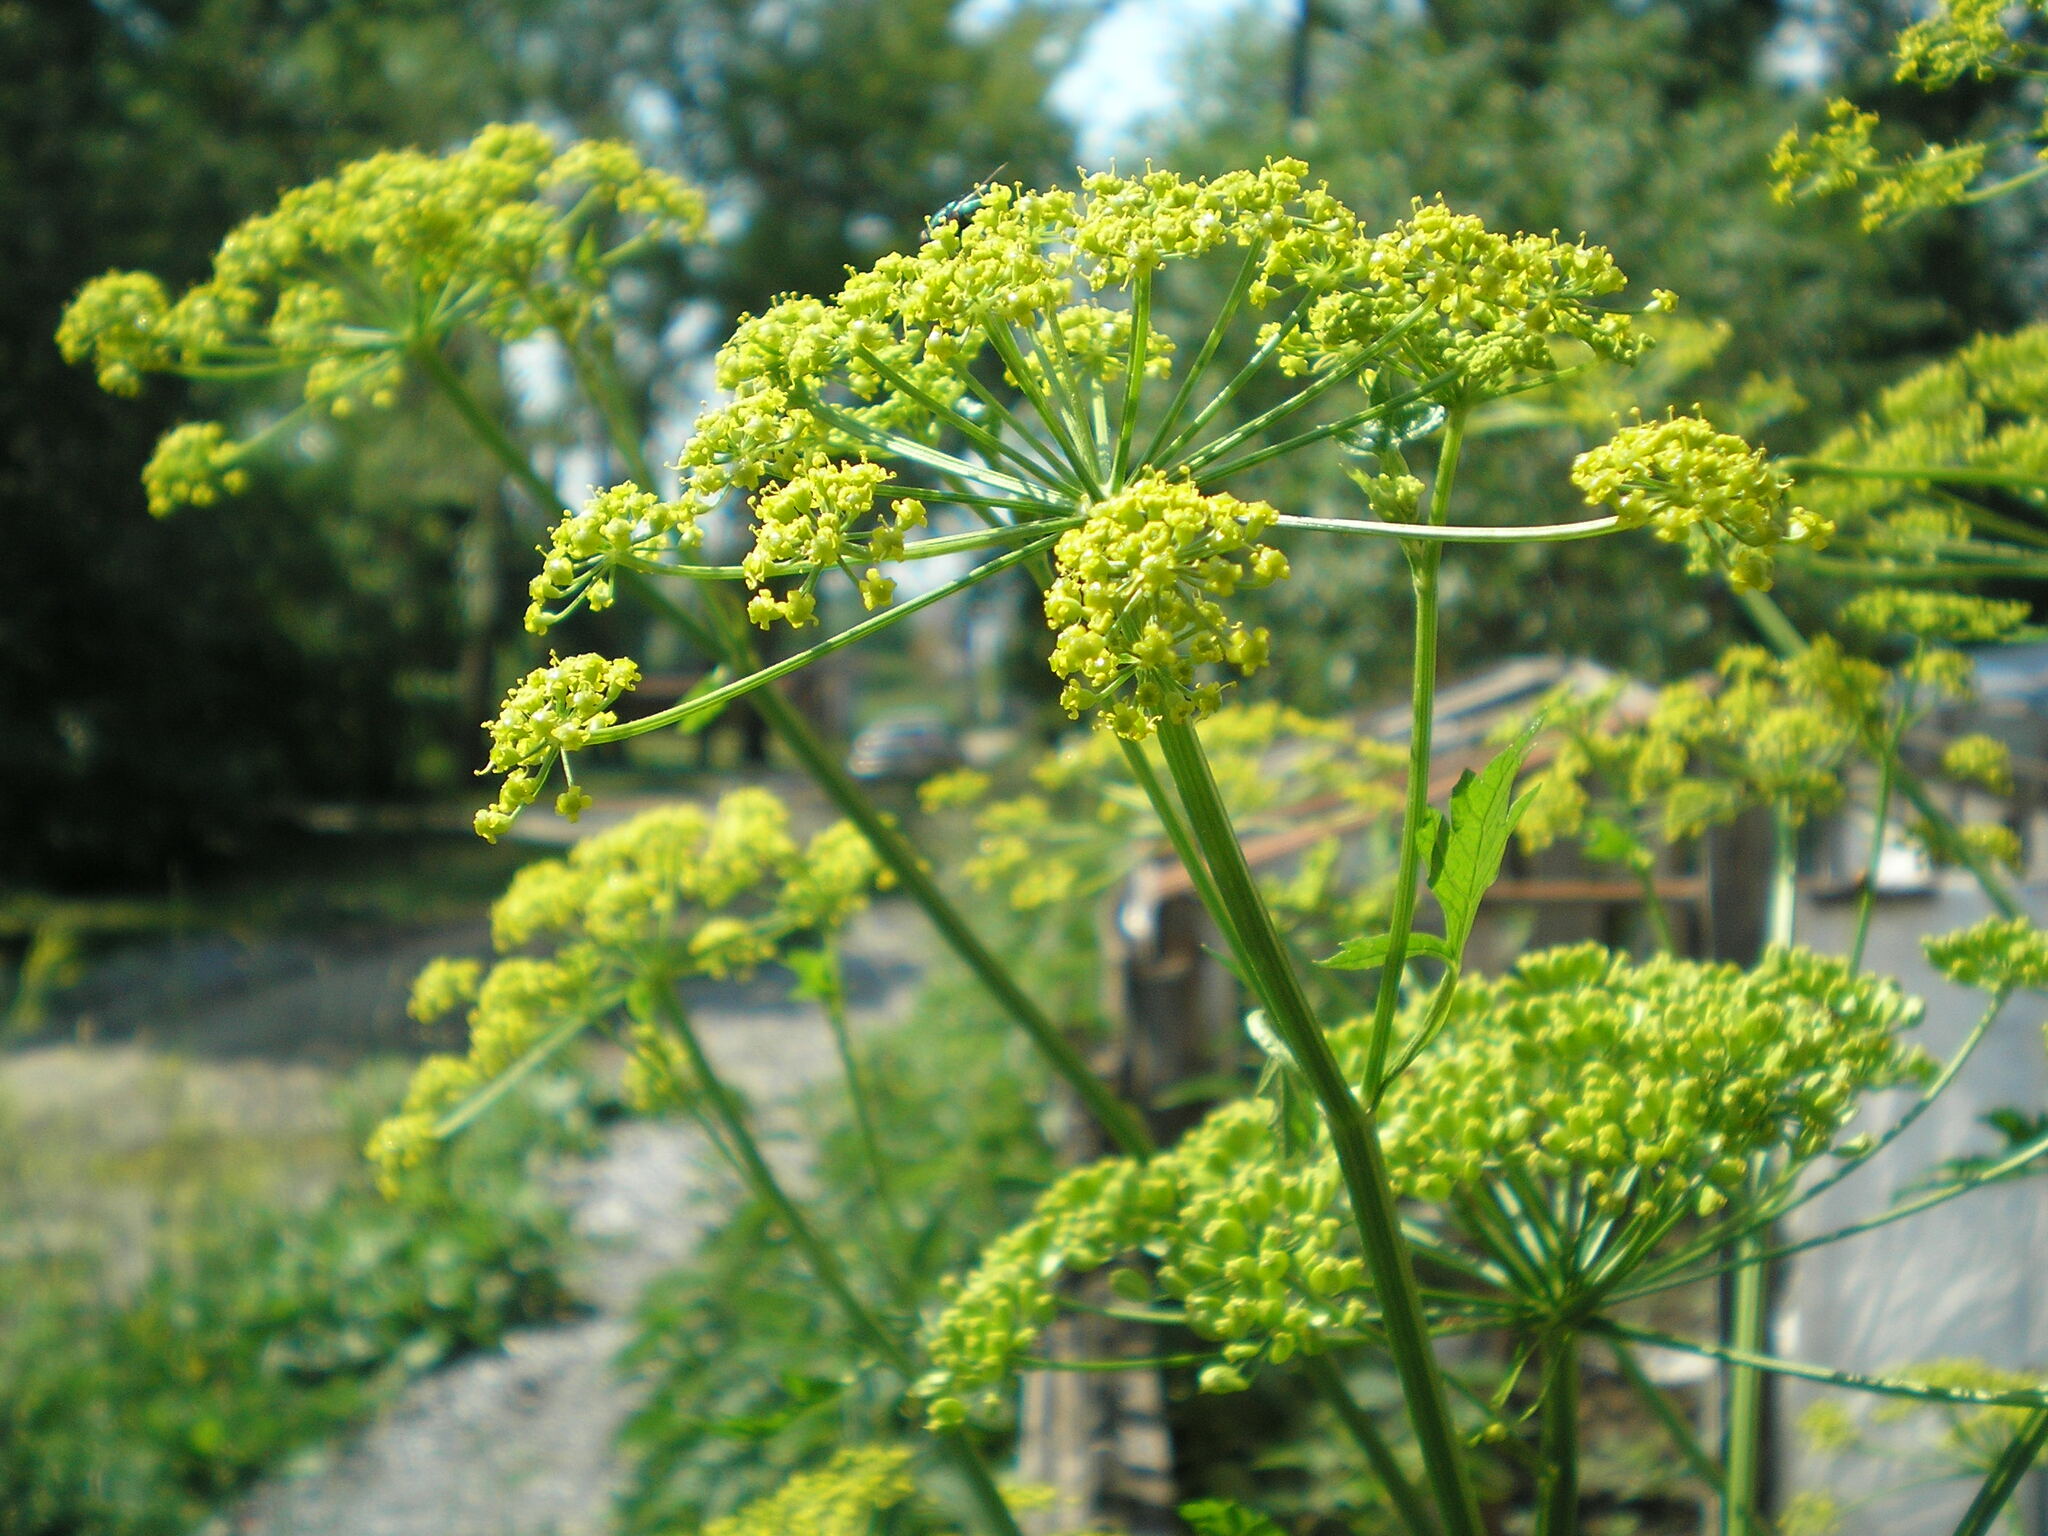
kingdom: Plantae
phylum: Tracheophyta
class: Magnoliopsida
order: Apiales
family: Apiaceae
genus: Heracleum
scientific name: Heracleum sphondylium
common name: Hogweed
